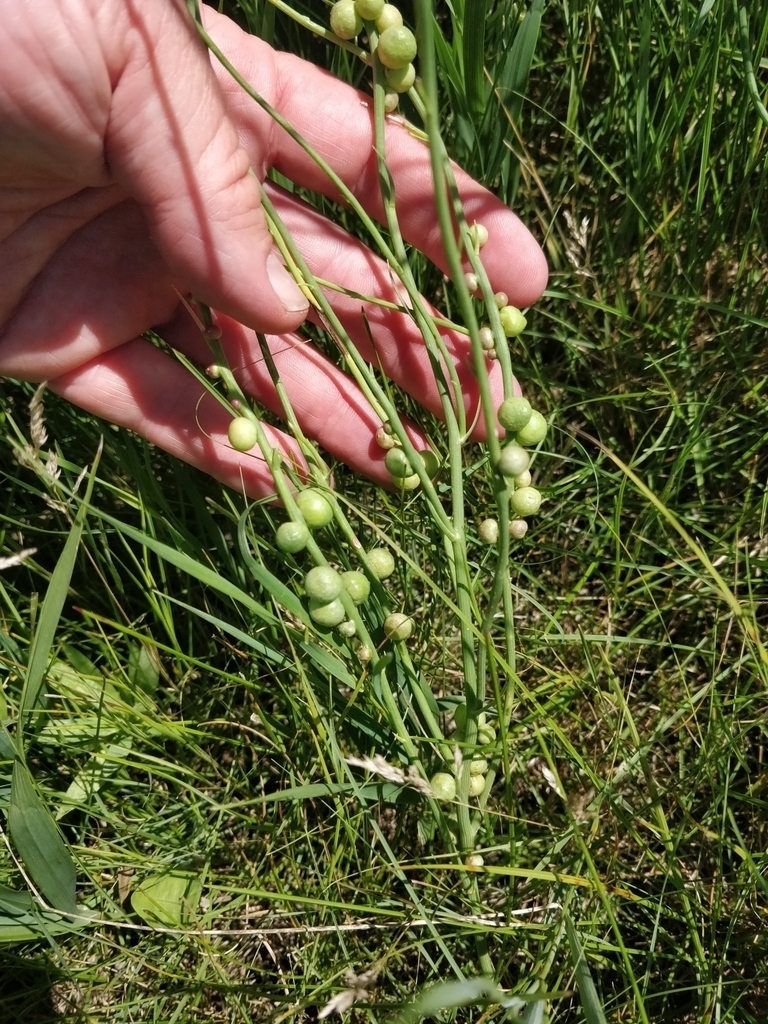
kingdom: Animalia
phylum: Arthropoda
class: Insecta
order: Hymenoptera
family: Cynipidae
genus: Antistrophus
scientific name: Antistrophus
